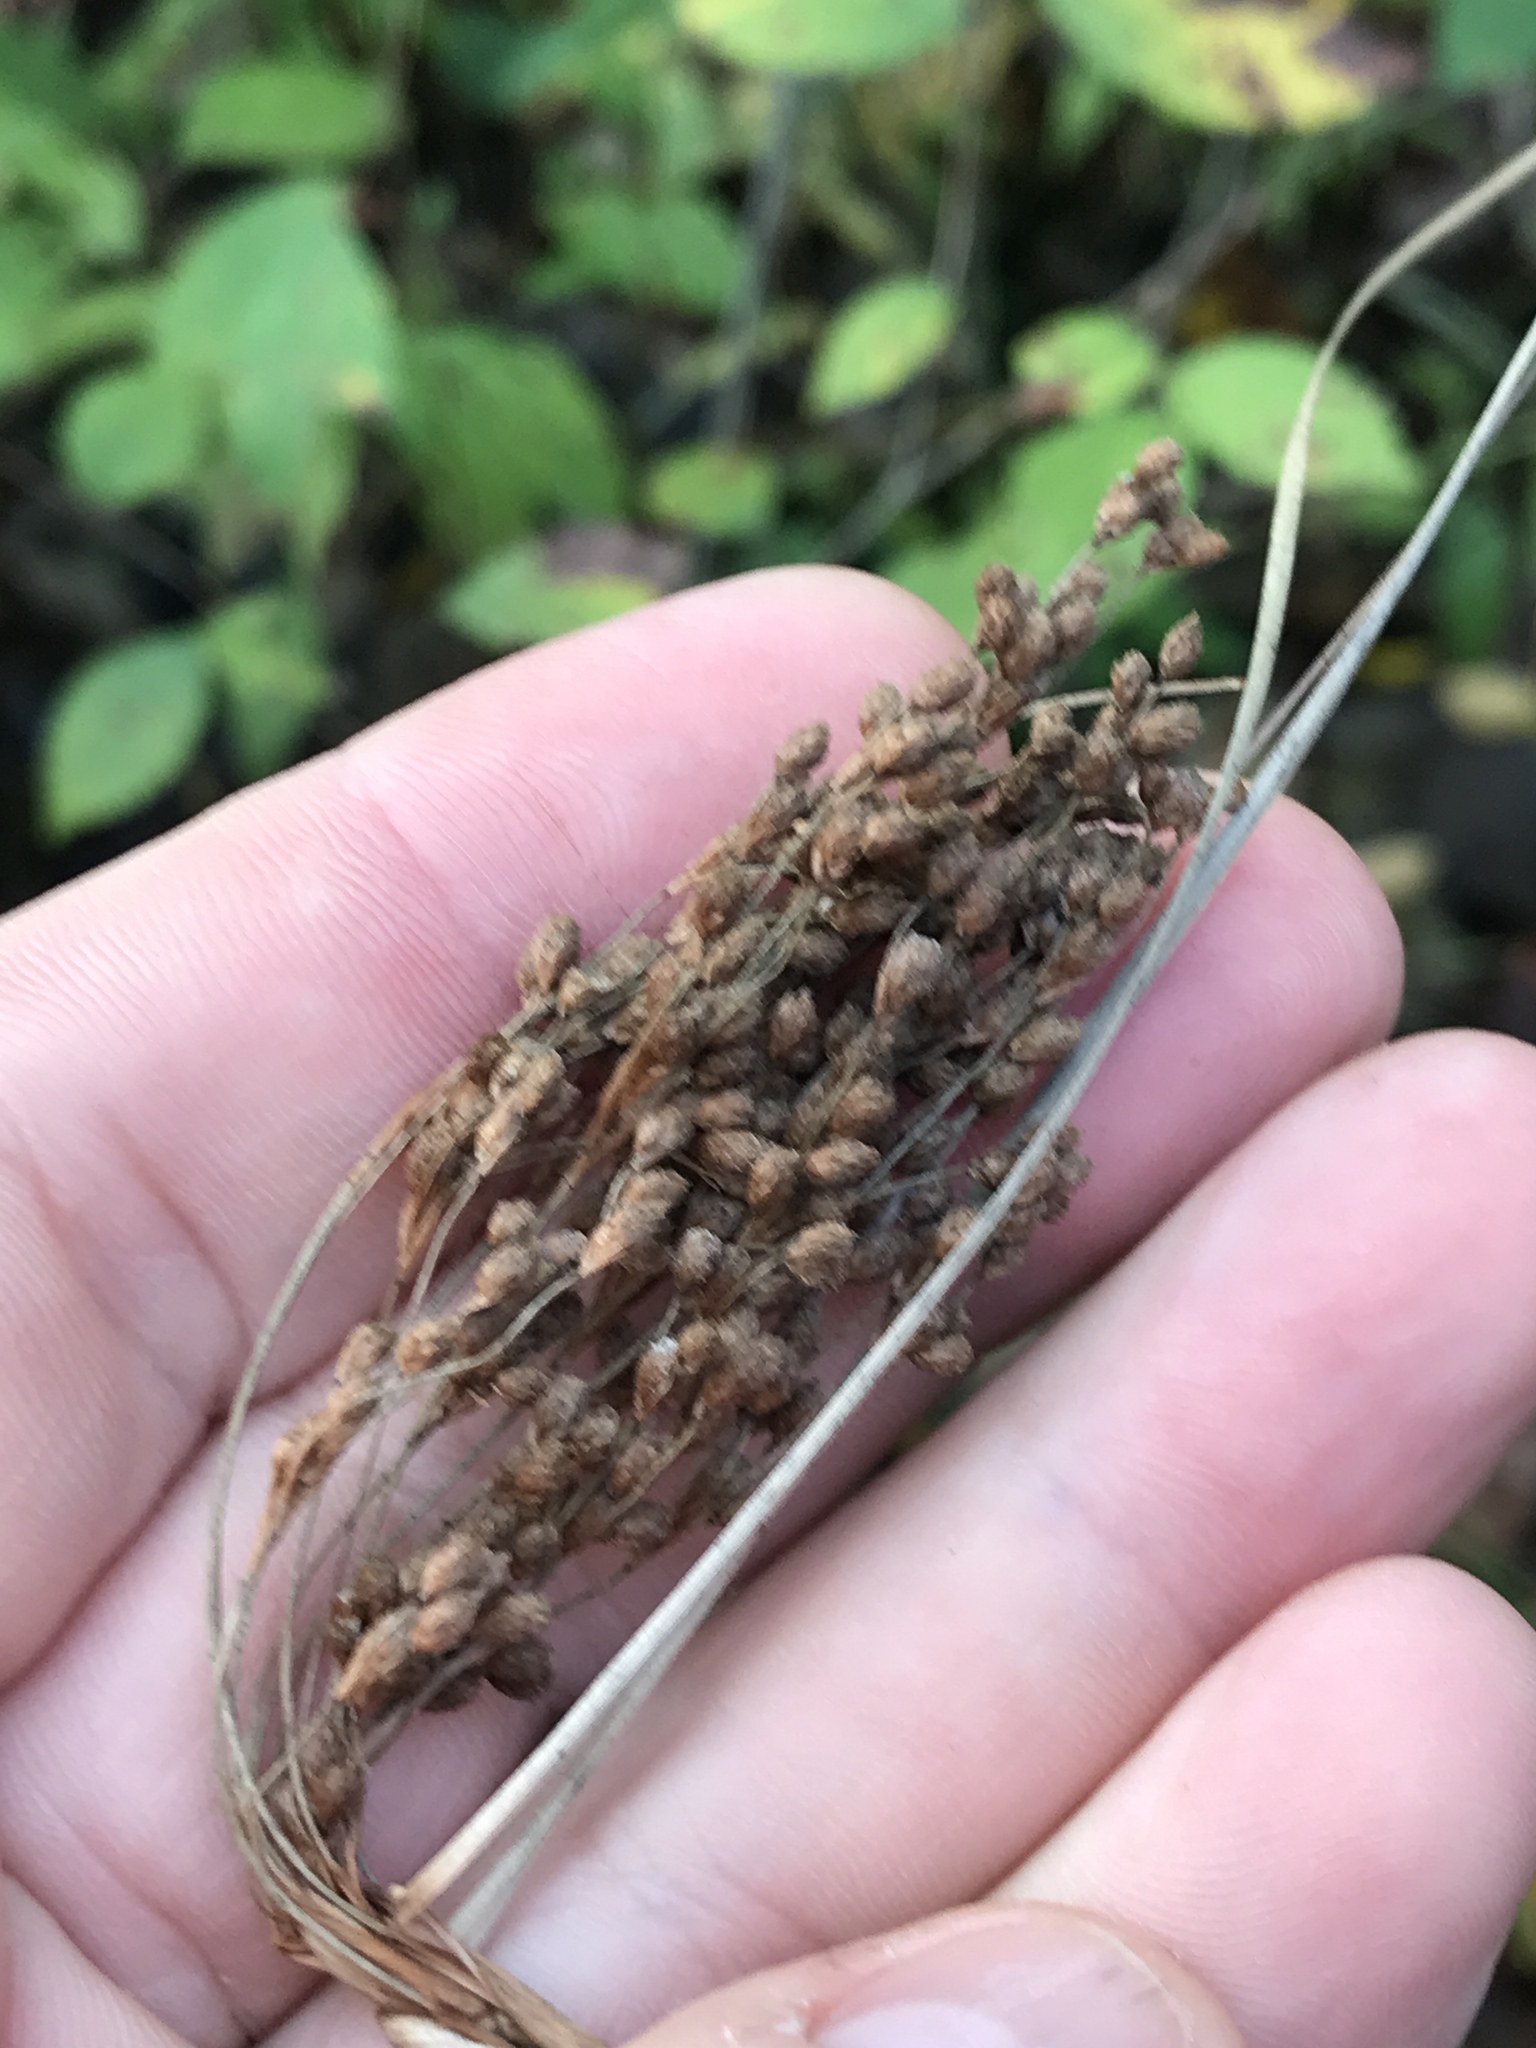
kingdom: Plantae
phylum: Tracheophyta
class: Liliopsida
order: Poales
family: Cyperaceae
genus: Scirpus
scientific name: Scirpus cyperinus
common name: Black-sheathed bulrush
